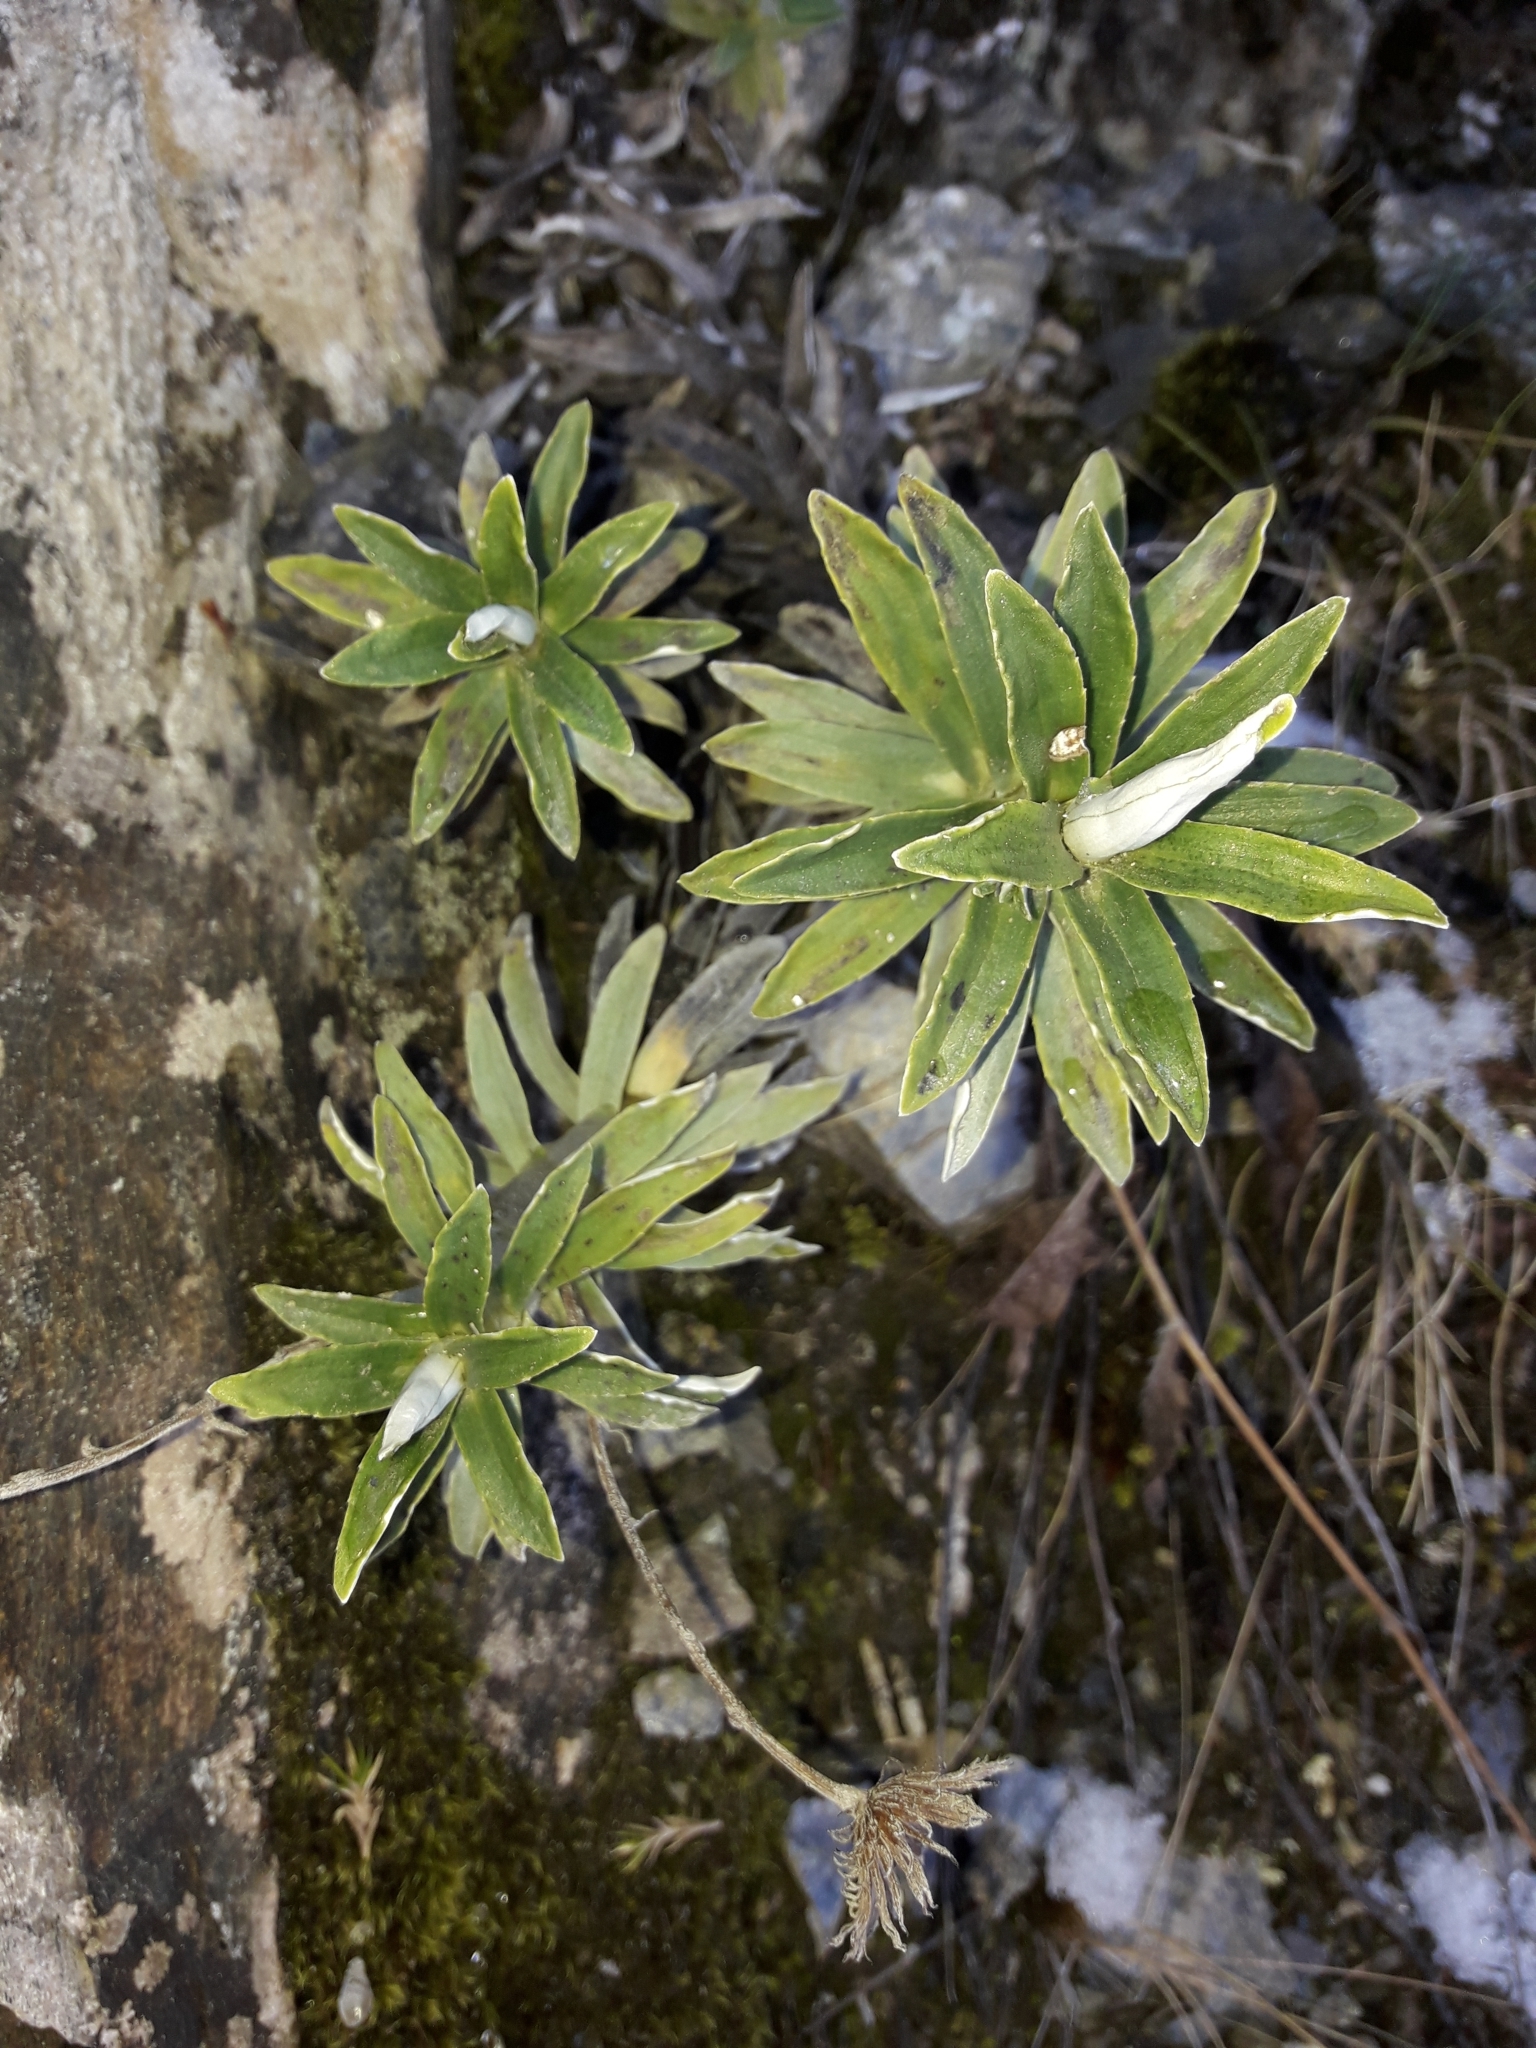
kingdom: Plantae
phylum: Tracheophyta
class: Magnoliopsida
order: Asterales
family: Asteraceae
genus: Celmisia
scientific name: Celmisia angustifolia
